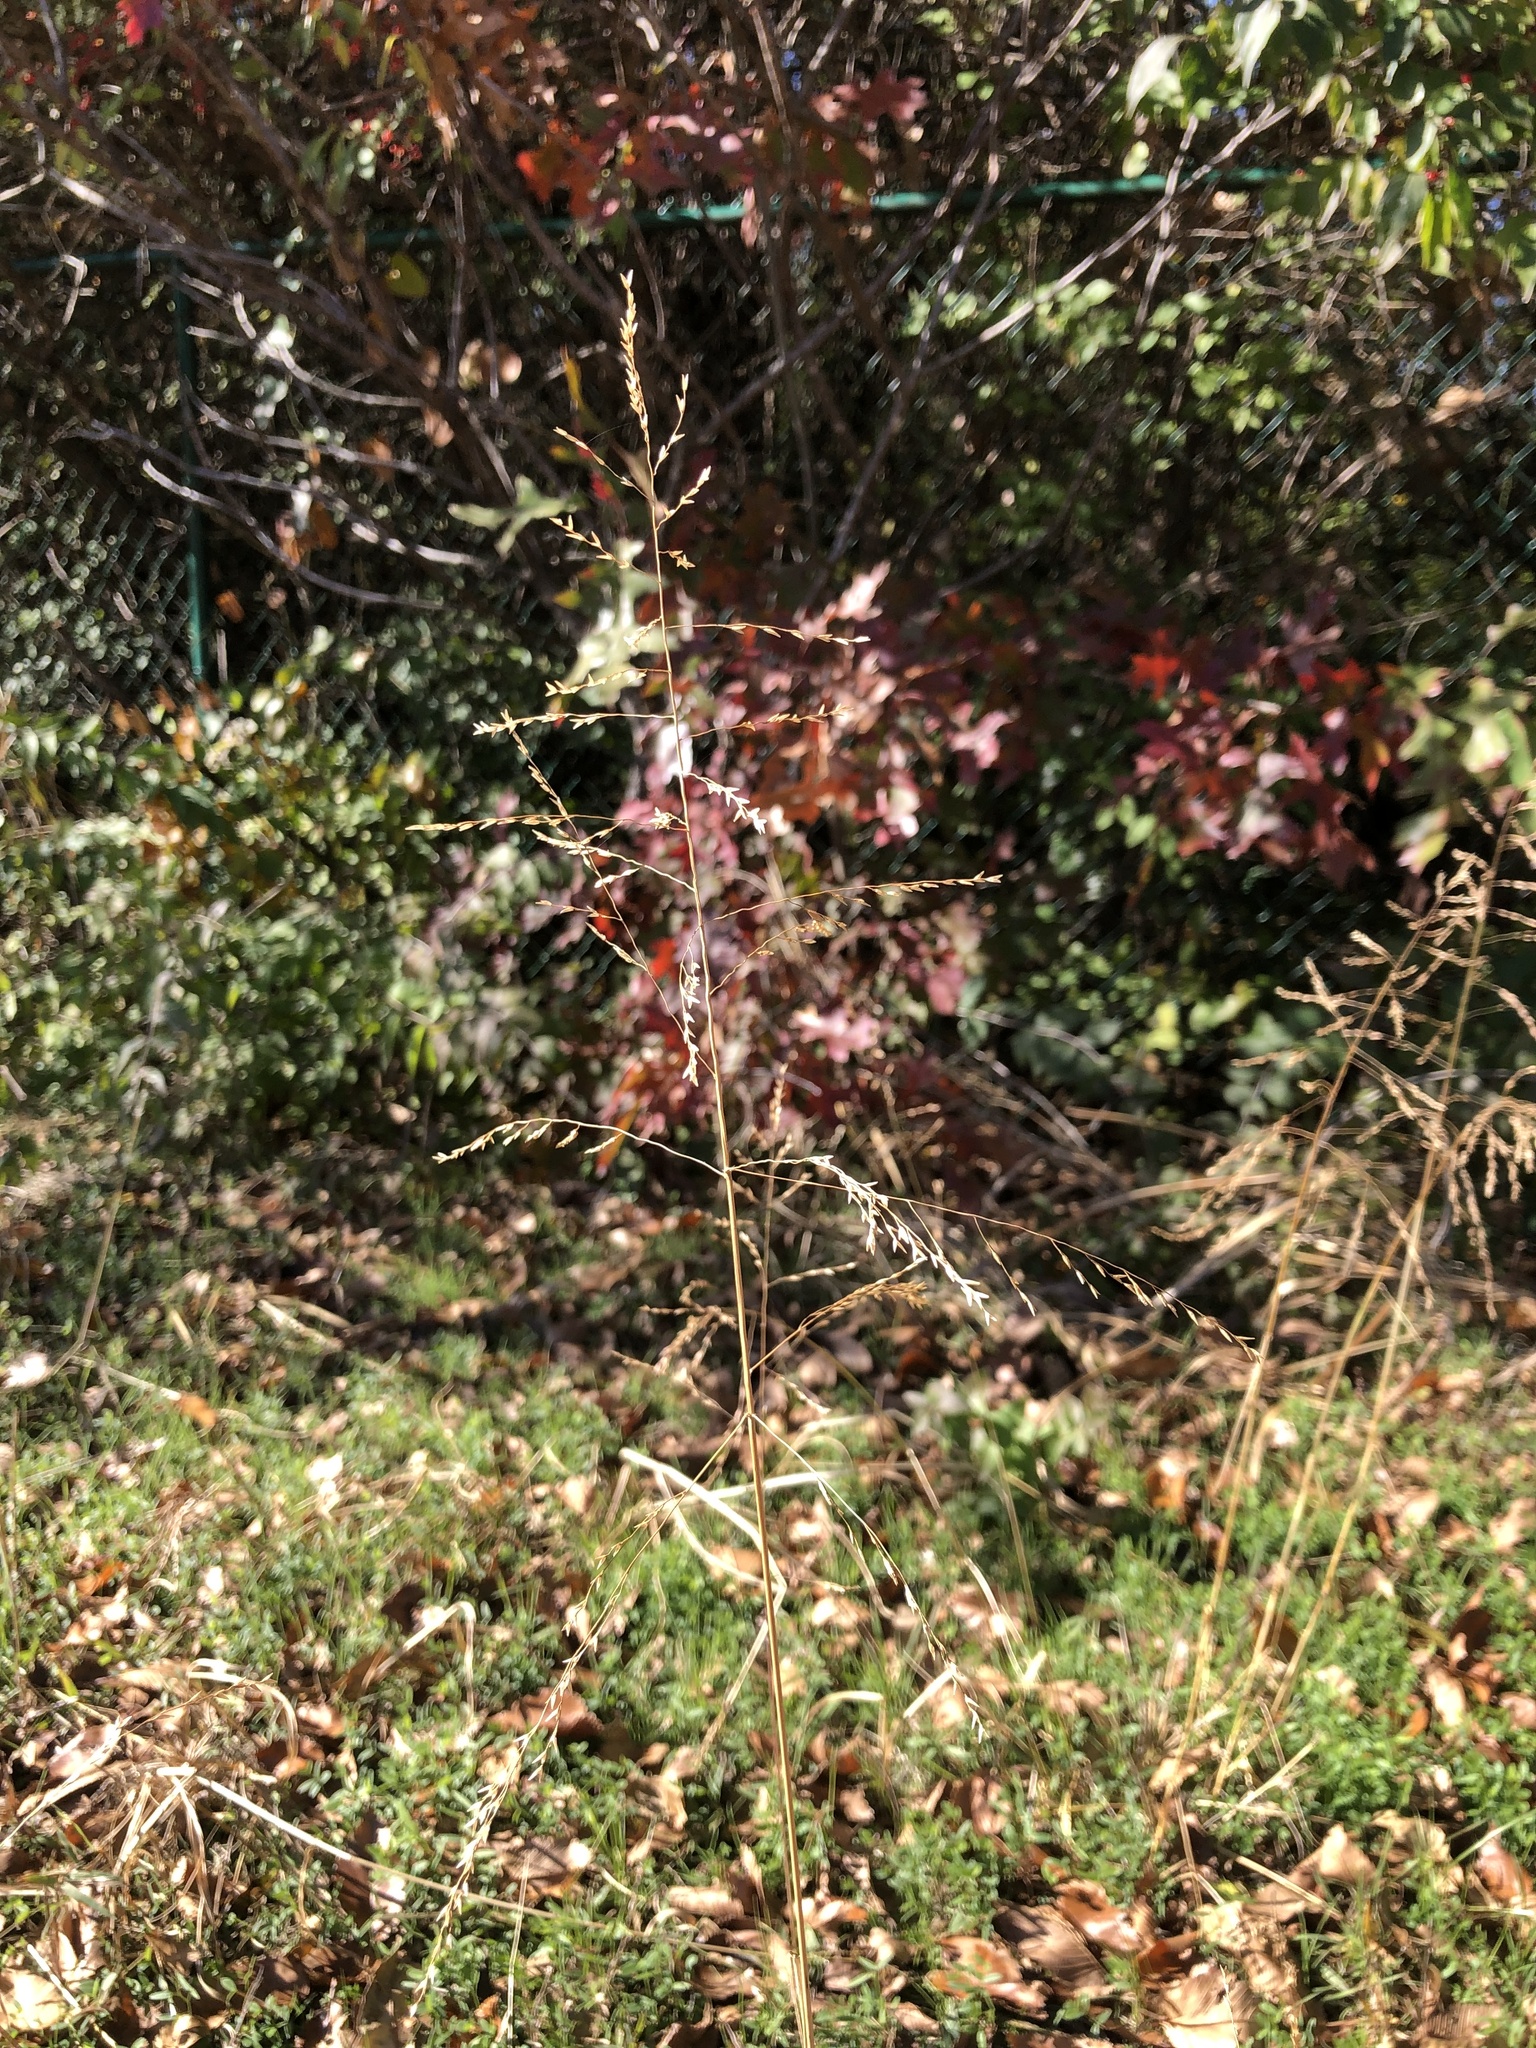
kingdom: Plantae
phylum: Tracheophyta
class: Liliopsida
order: Poales
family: Poaceae
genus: Tridens
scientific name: Tridens flavus
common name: Purpletop
